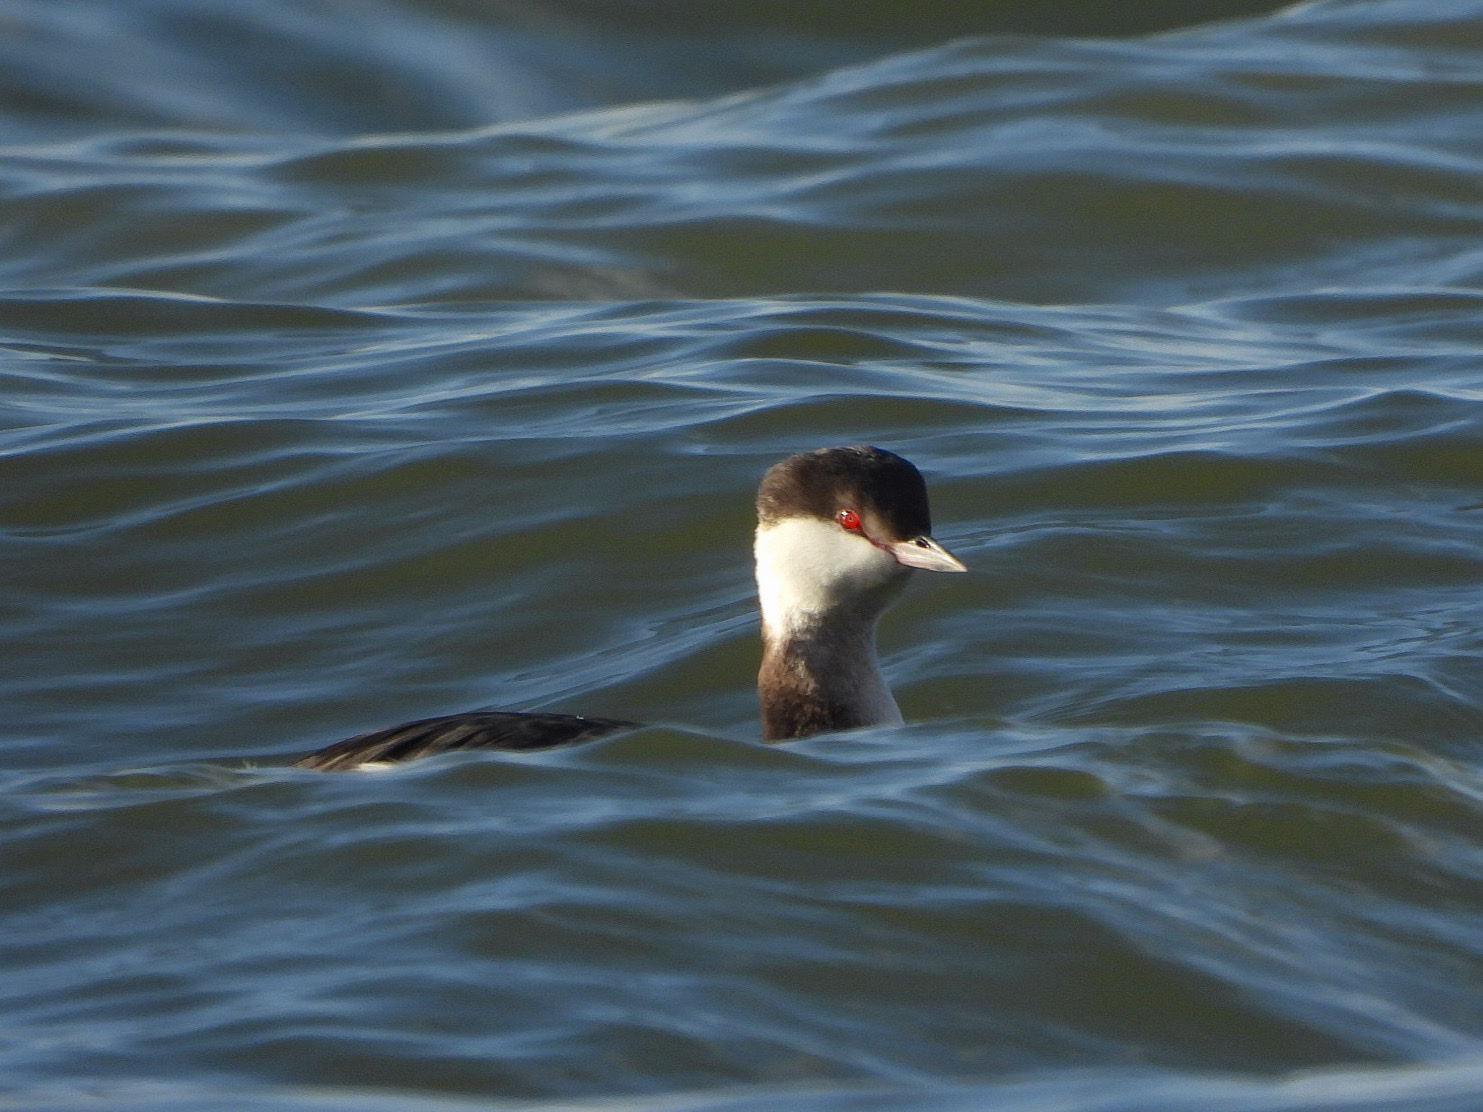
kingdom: Animalia
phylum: Chordata
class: Aves
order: Podicipediformes
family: Podicipedidae
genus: Podiceps
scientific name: Podiceps auritus
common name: Horned grebe
